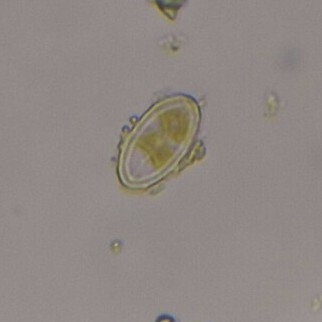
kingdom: Chromista
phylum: Ochrophyta
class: Bacillariophyceae
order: Achnanthales
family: Cocconeidaceae
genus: Cocconeis
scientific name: Cocconeis placentula
